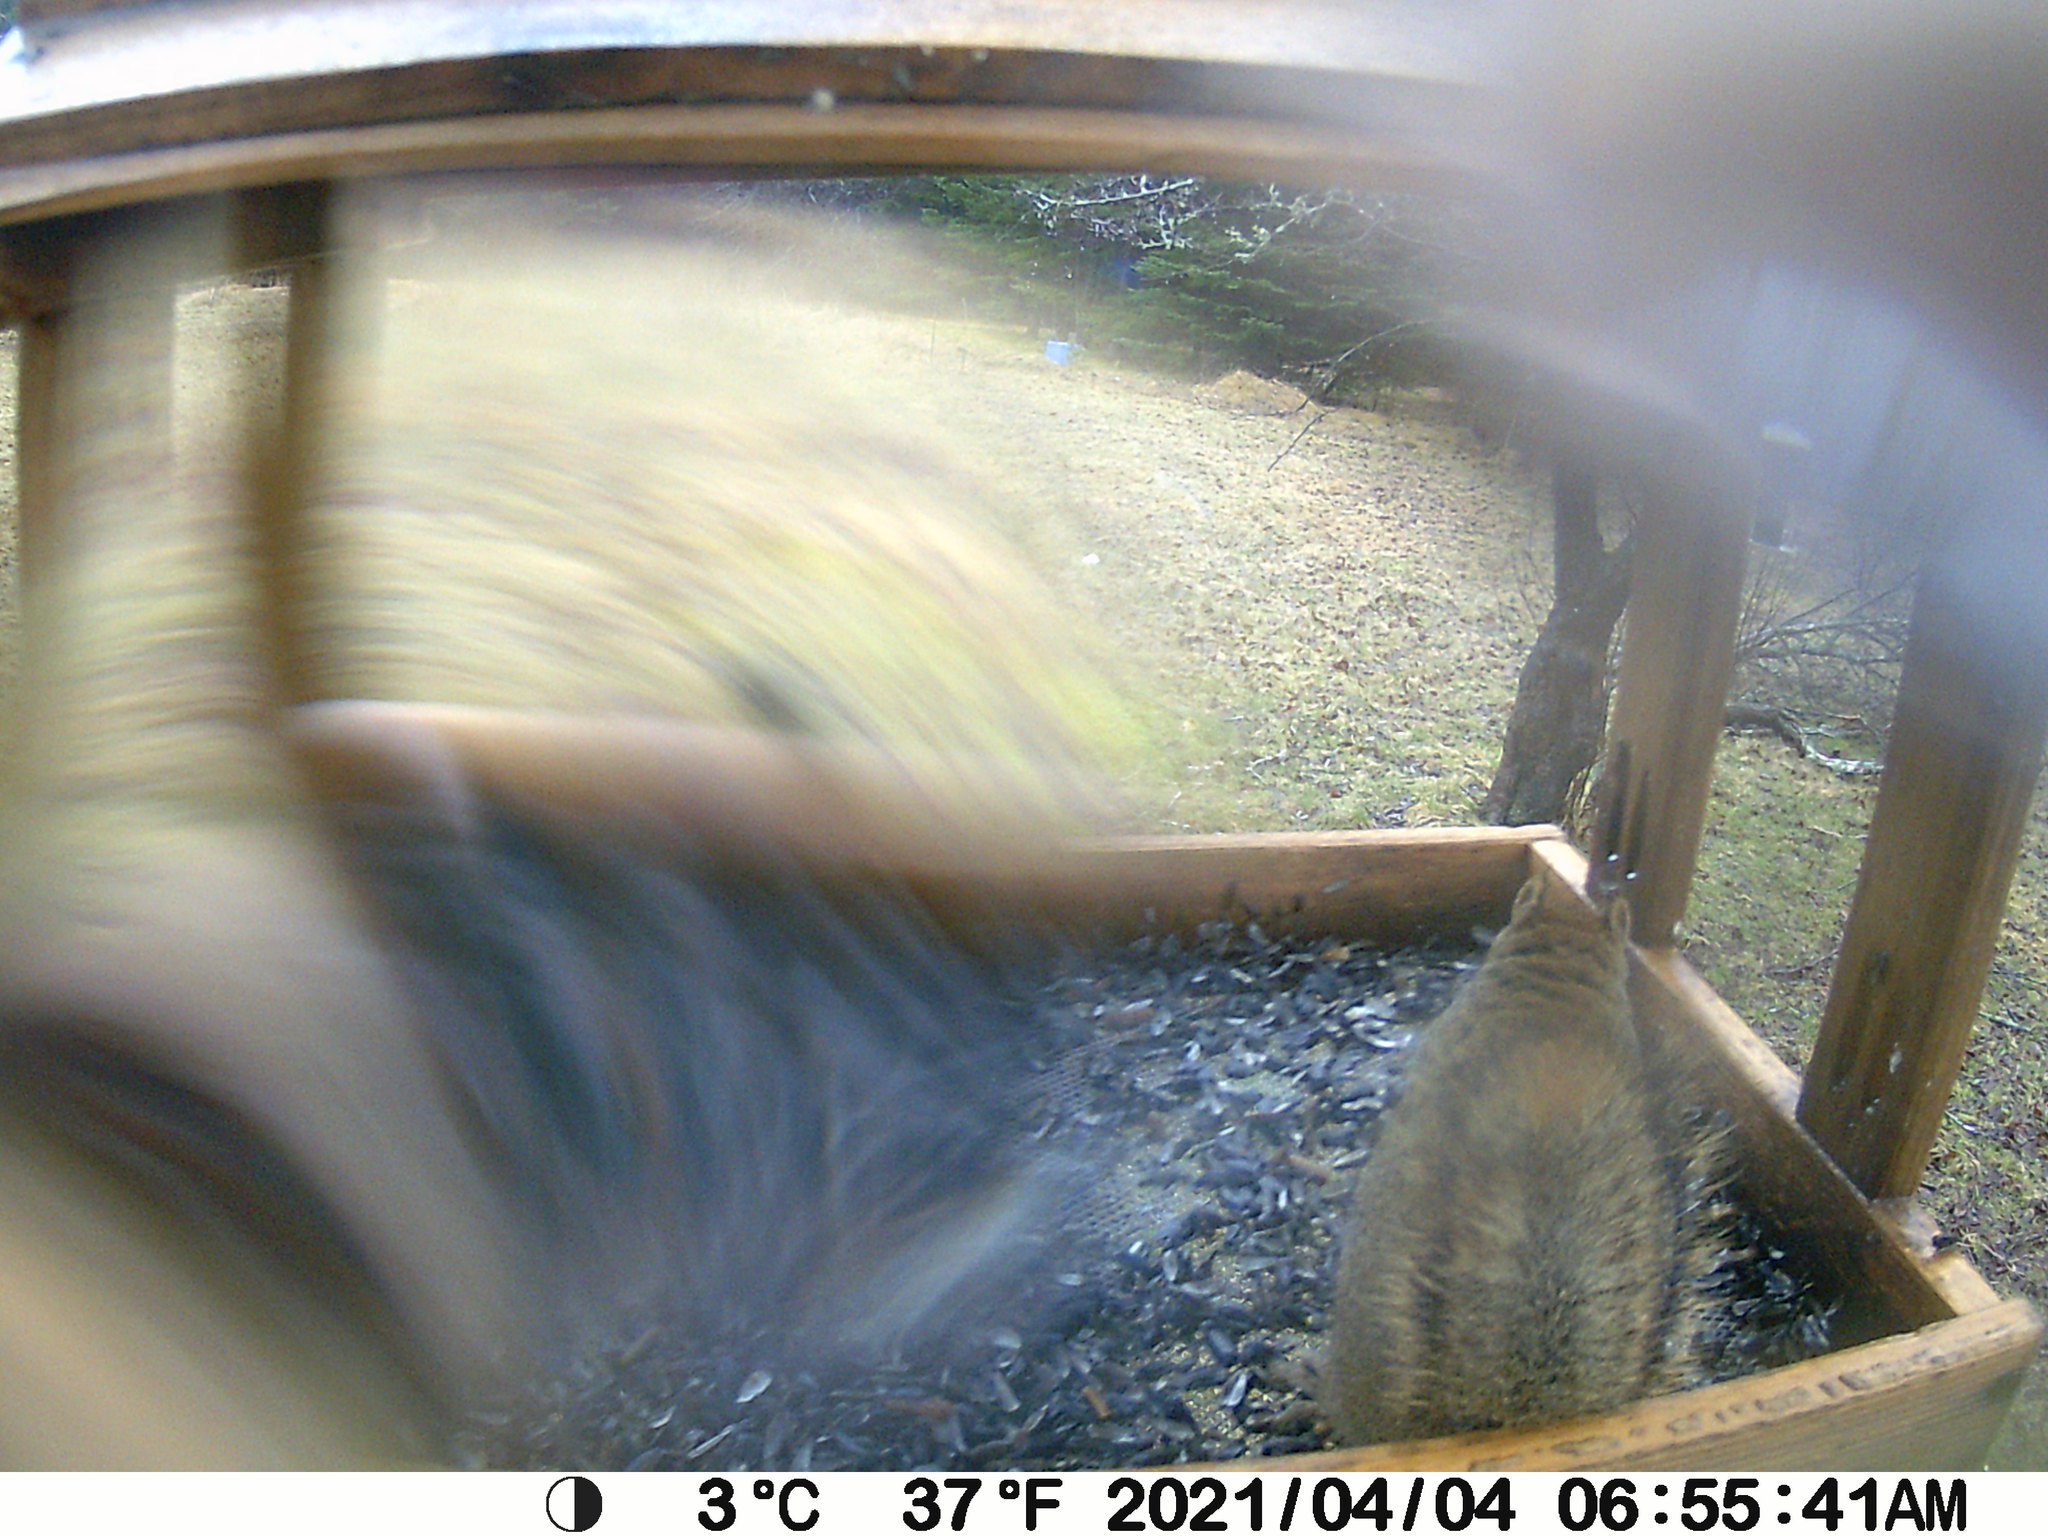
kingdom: Animalia
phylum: Chordata
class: Mammalia
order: Rodentia
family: Sciuridae
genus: Tamiasciurus
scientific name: Tamiasciurus hudsonicus
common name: Red squirrel
